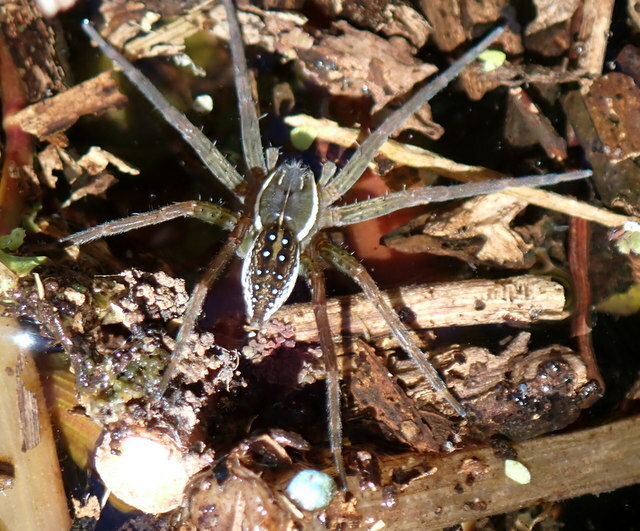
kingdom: Animalia
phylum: Arthropoda
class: Arachnida
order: Araneae
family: Pisauridae
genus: Dolomedes
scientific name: Dolomedes triton
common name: Six-spotted fishing spider
